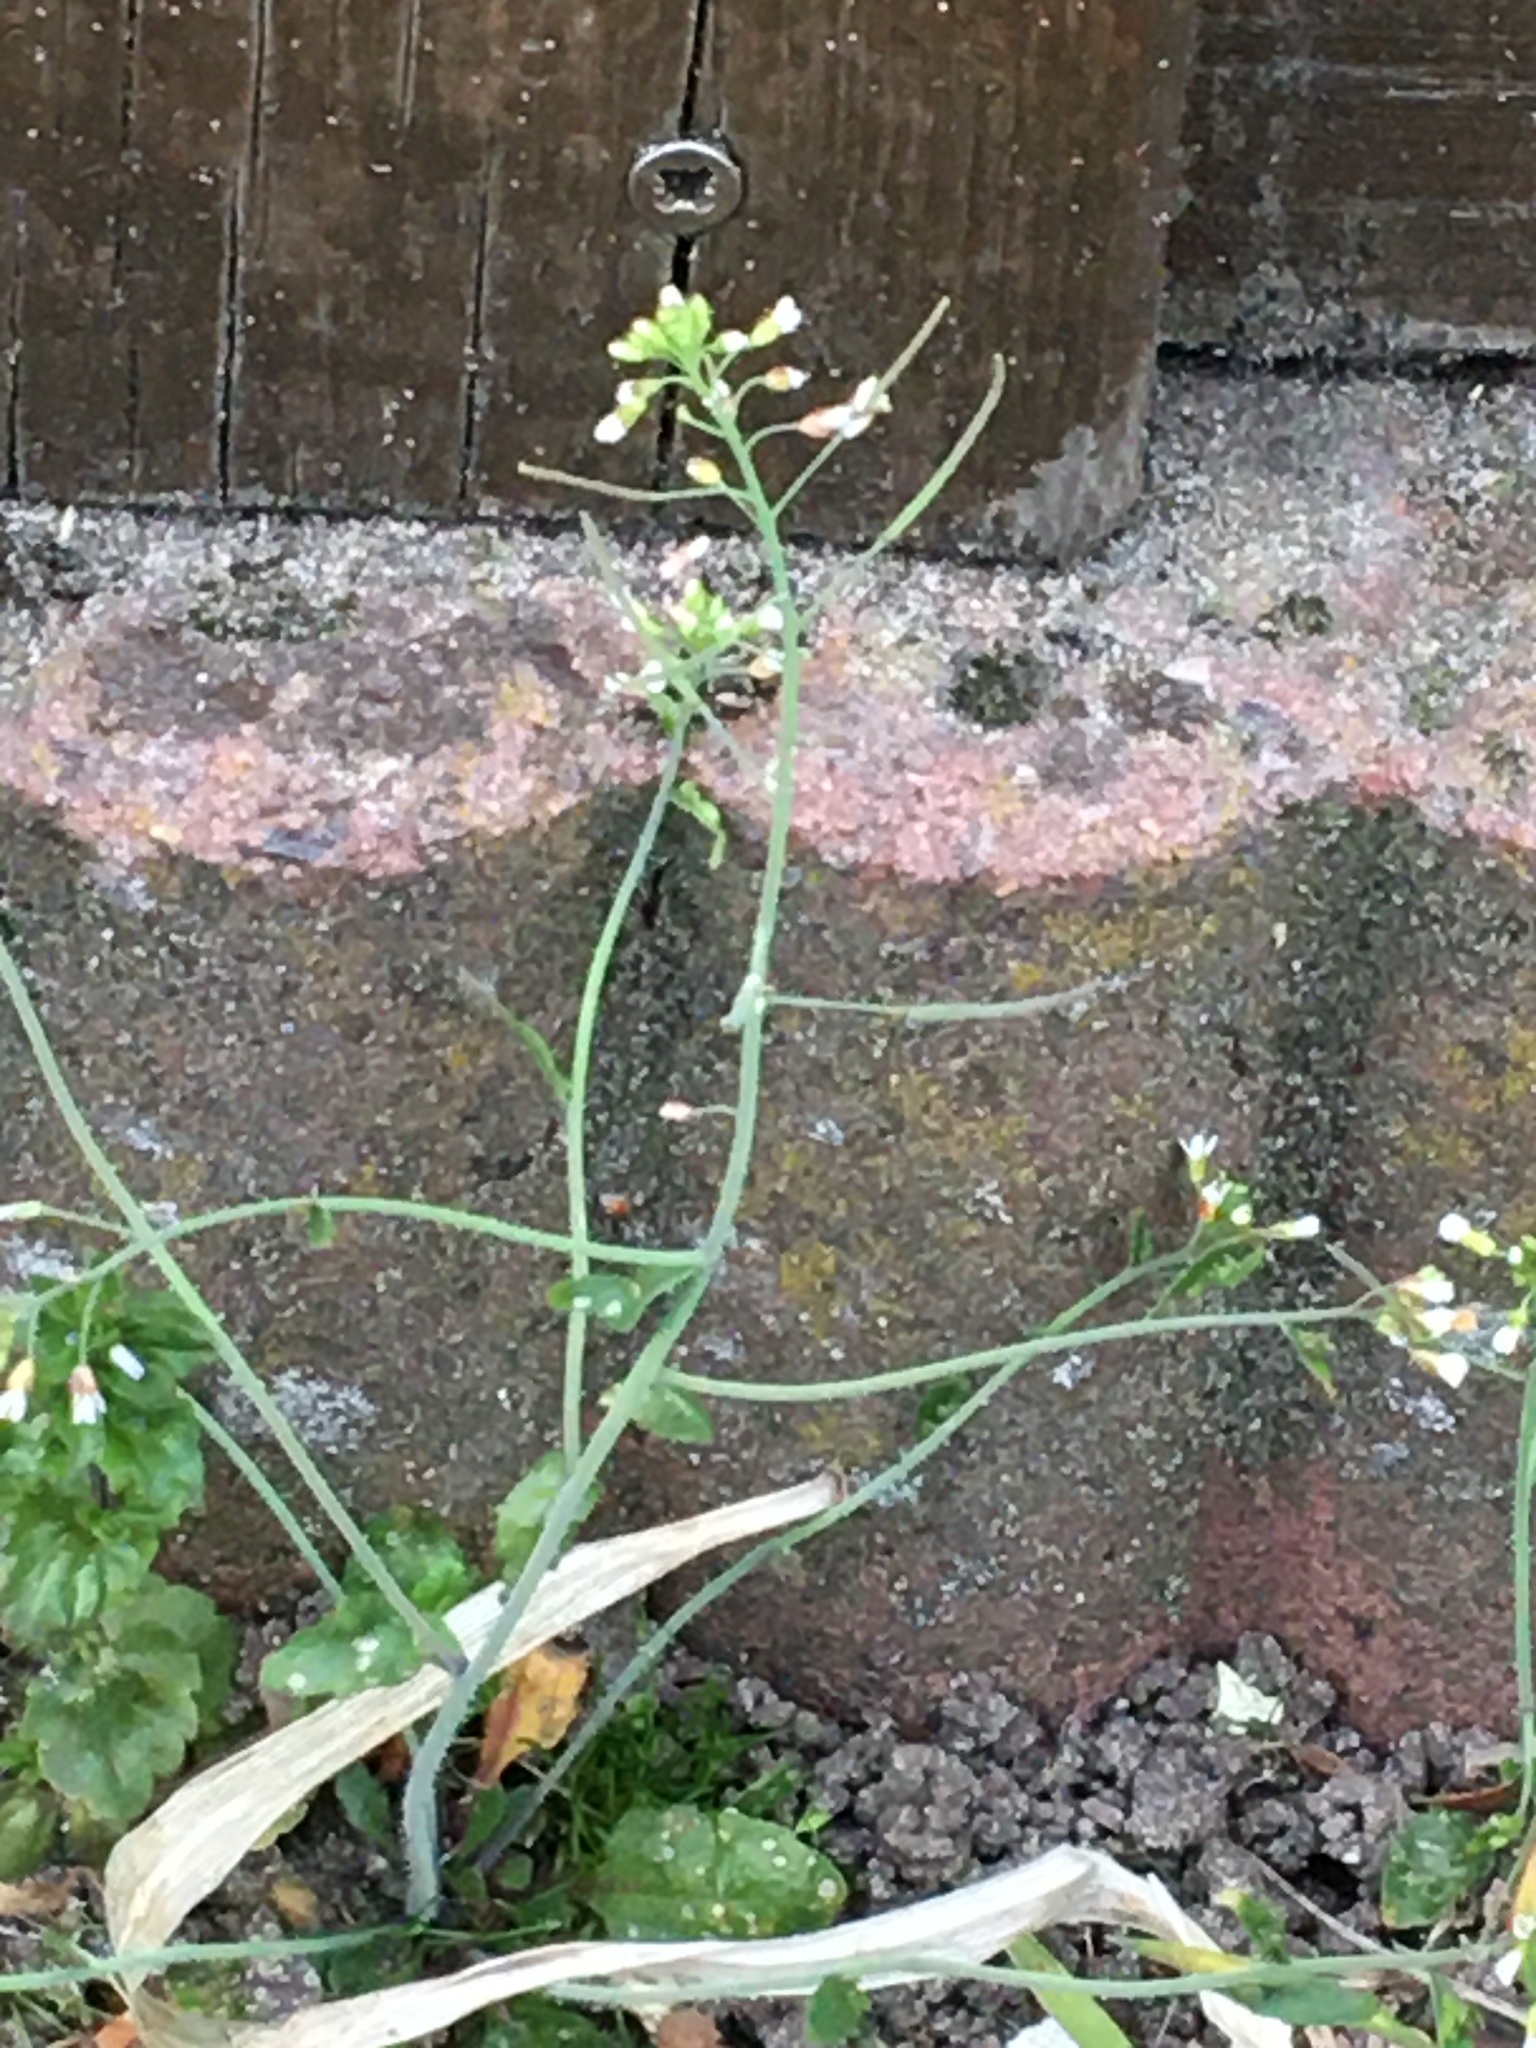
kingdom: Plantae
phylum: Tracheophyta
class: Magnoliopsida
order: Brassicales
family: Brassicaceae
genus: Arabidopsis
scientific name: Arabidopsis thaliana
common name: Thale cress
